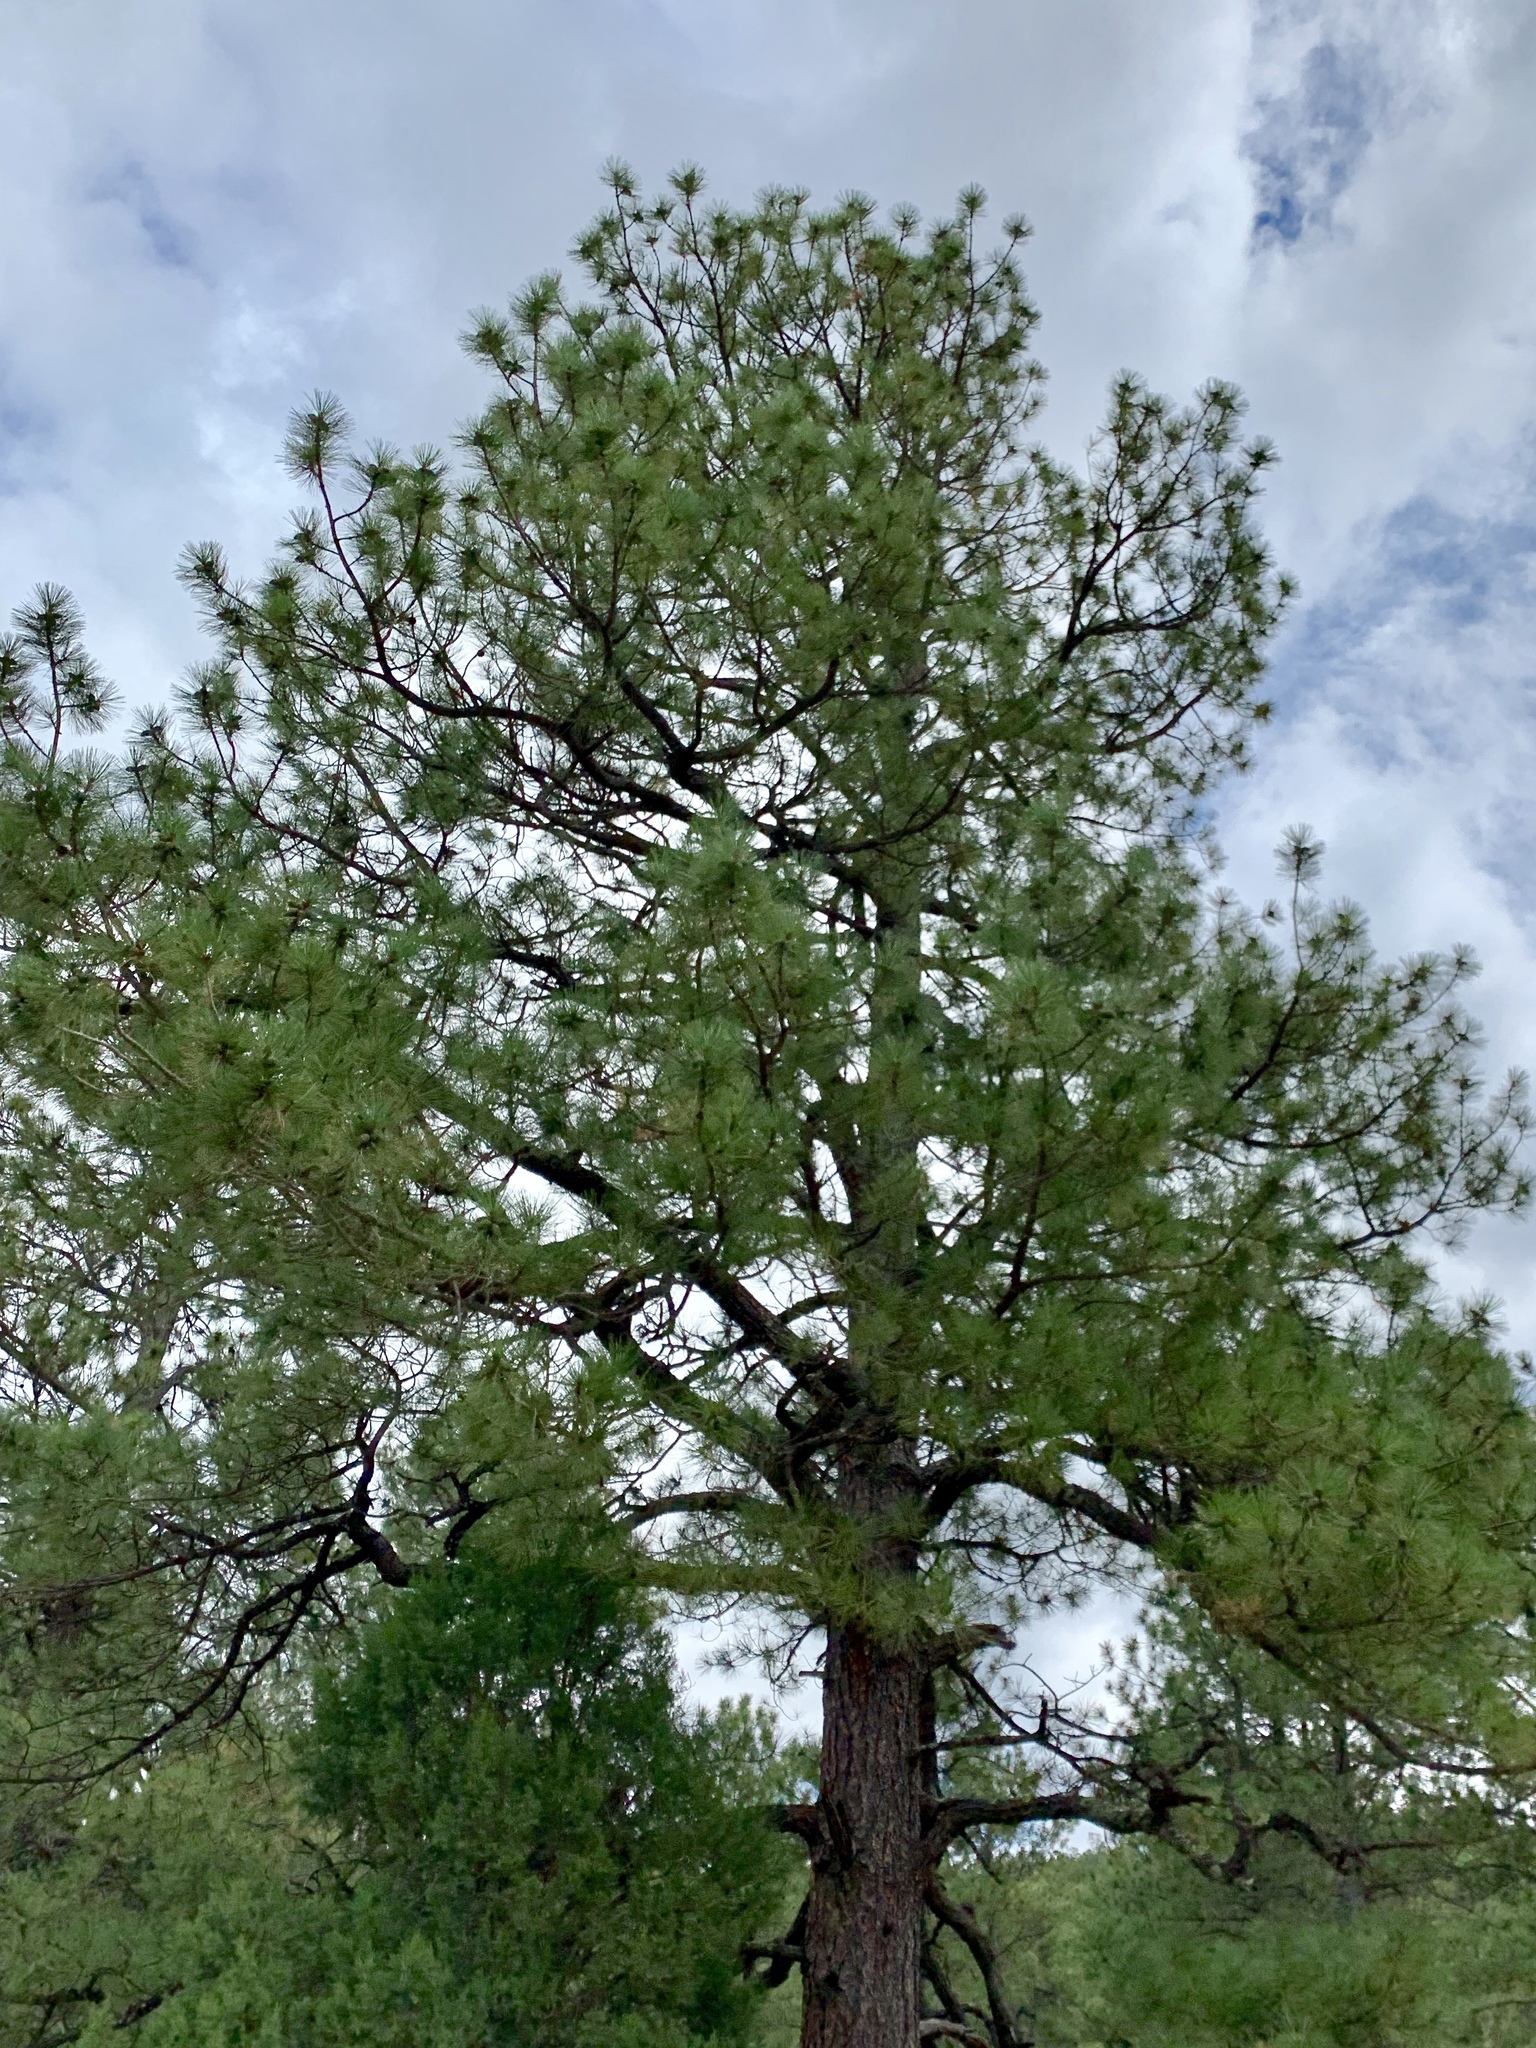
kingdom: Plantae
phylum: Tracheophyta
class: Pinopsida
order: Pinales
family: Pinaceae
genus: Pinus
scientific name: Pinus ponderosa
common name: Western yellow-pine
